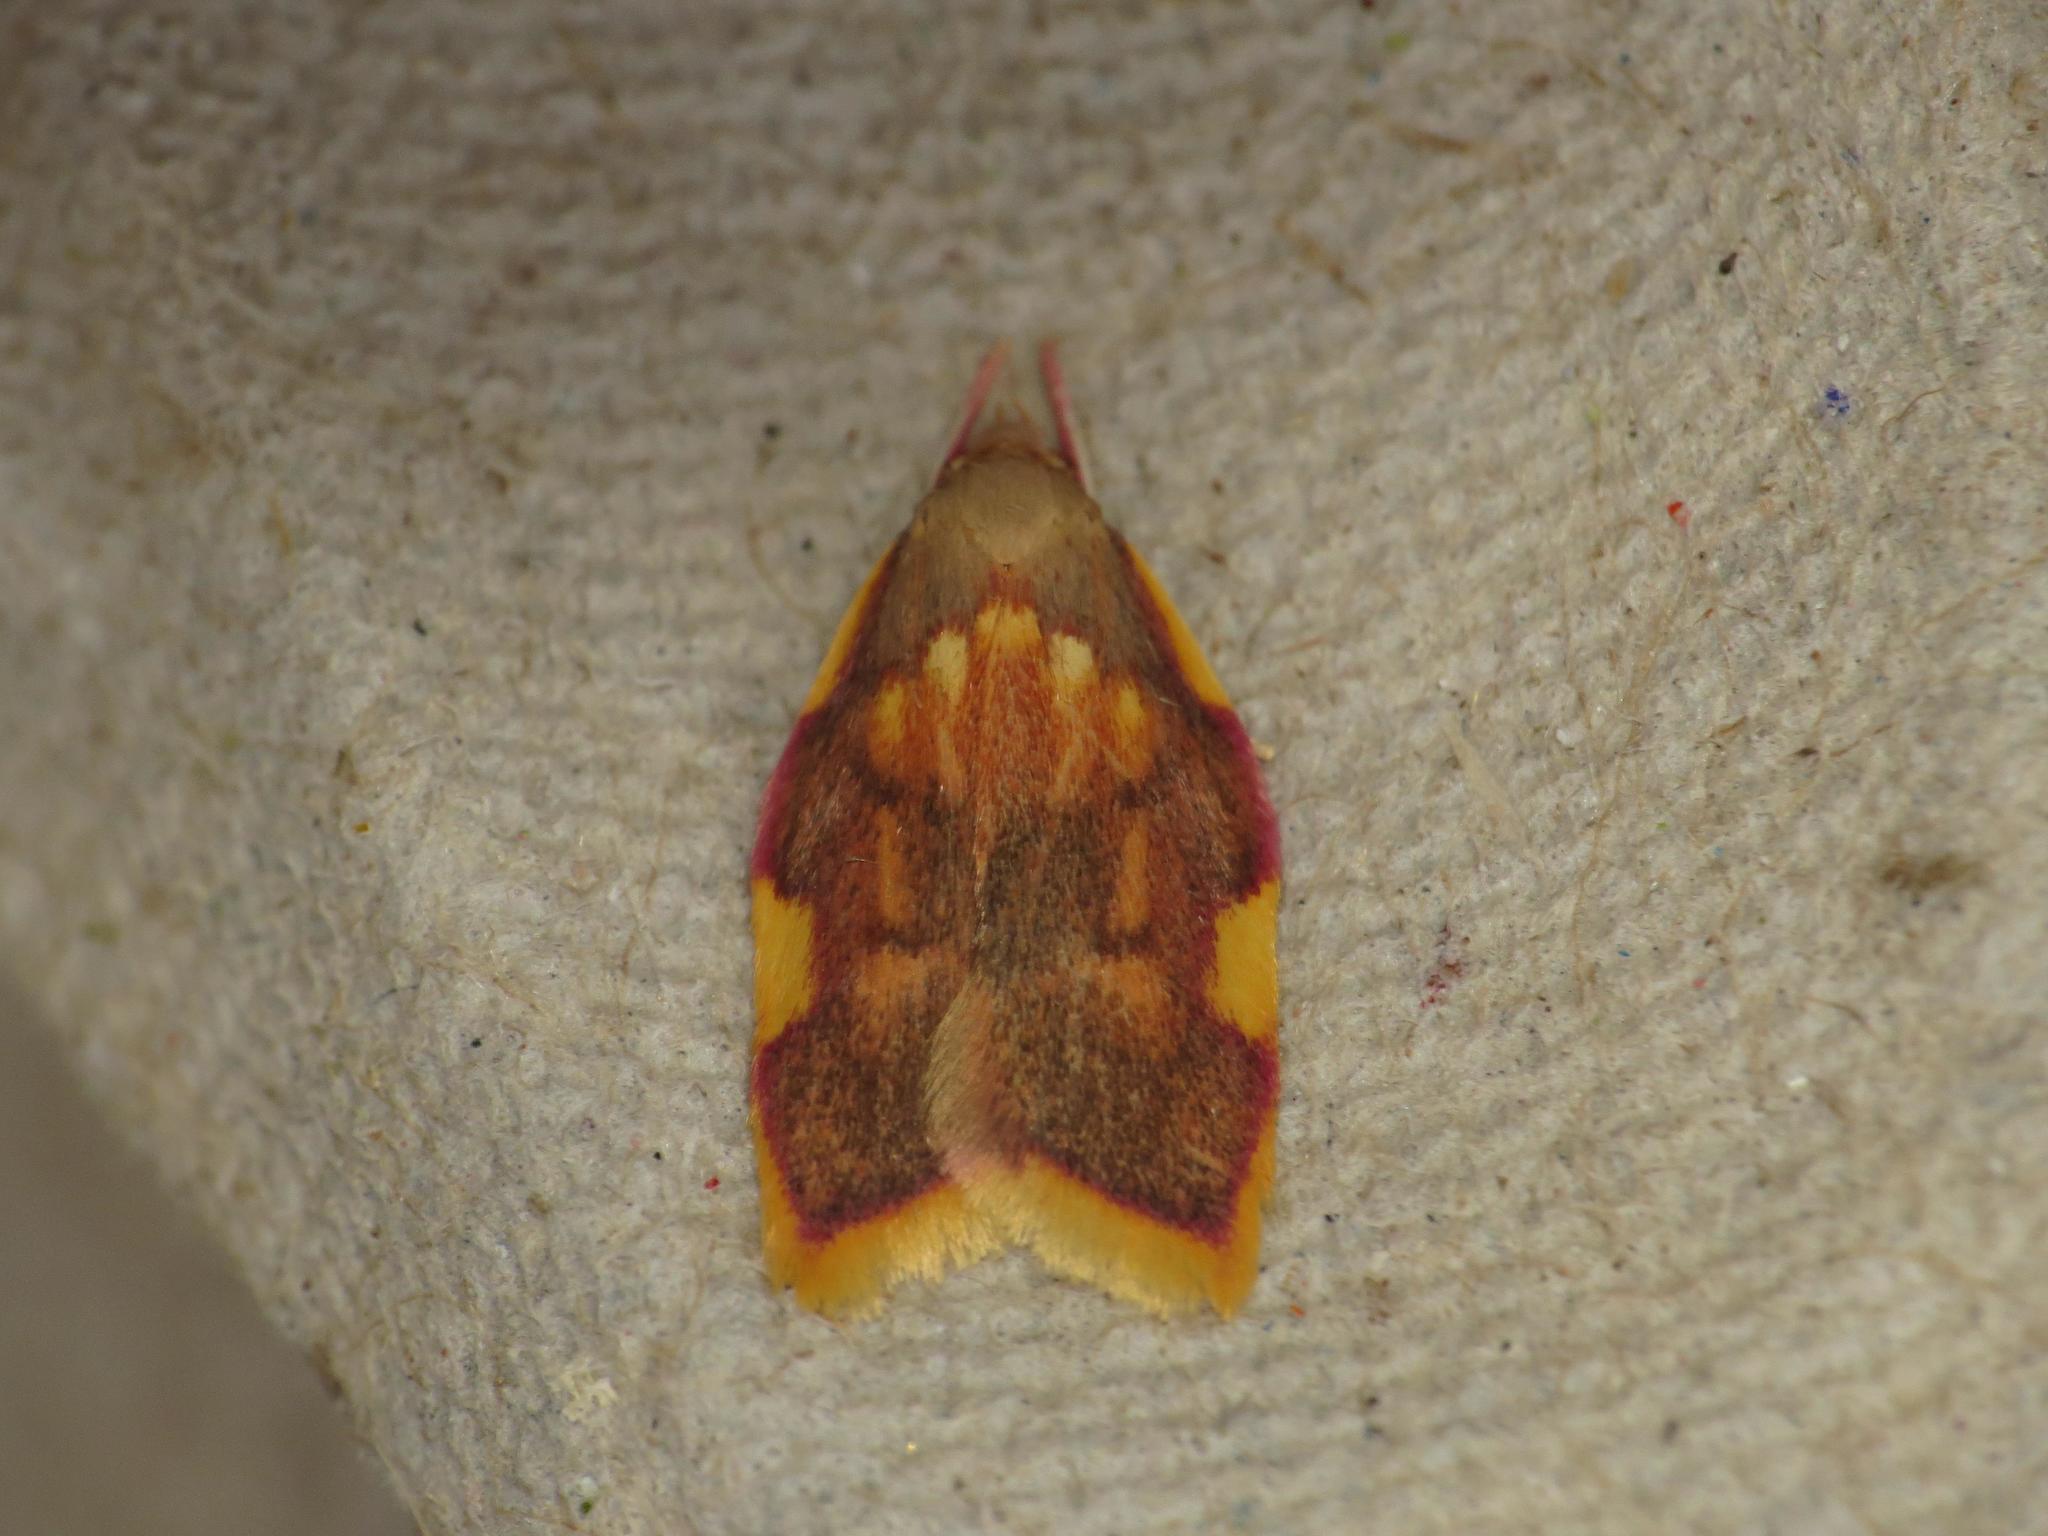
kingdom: Animalia
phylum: Arthropoda
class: Insecta
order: Lepidoptera
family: Peleopodidae
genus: Carcina
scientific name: Carcina quercana
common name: Moth
